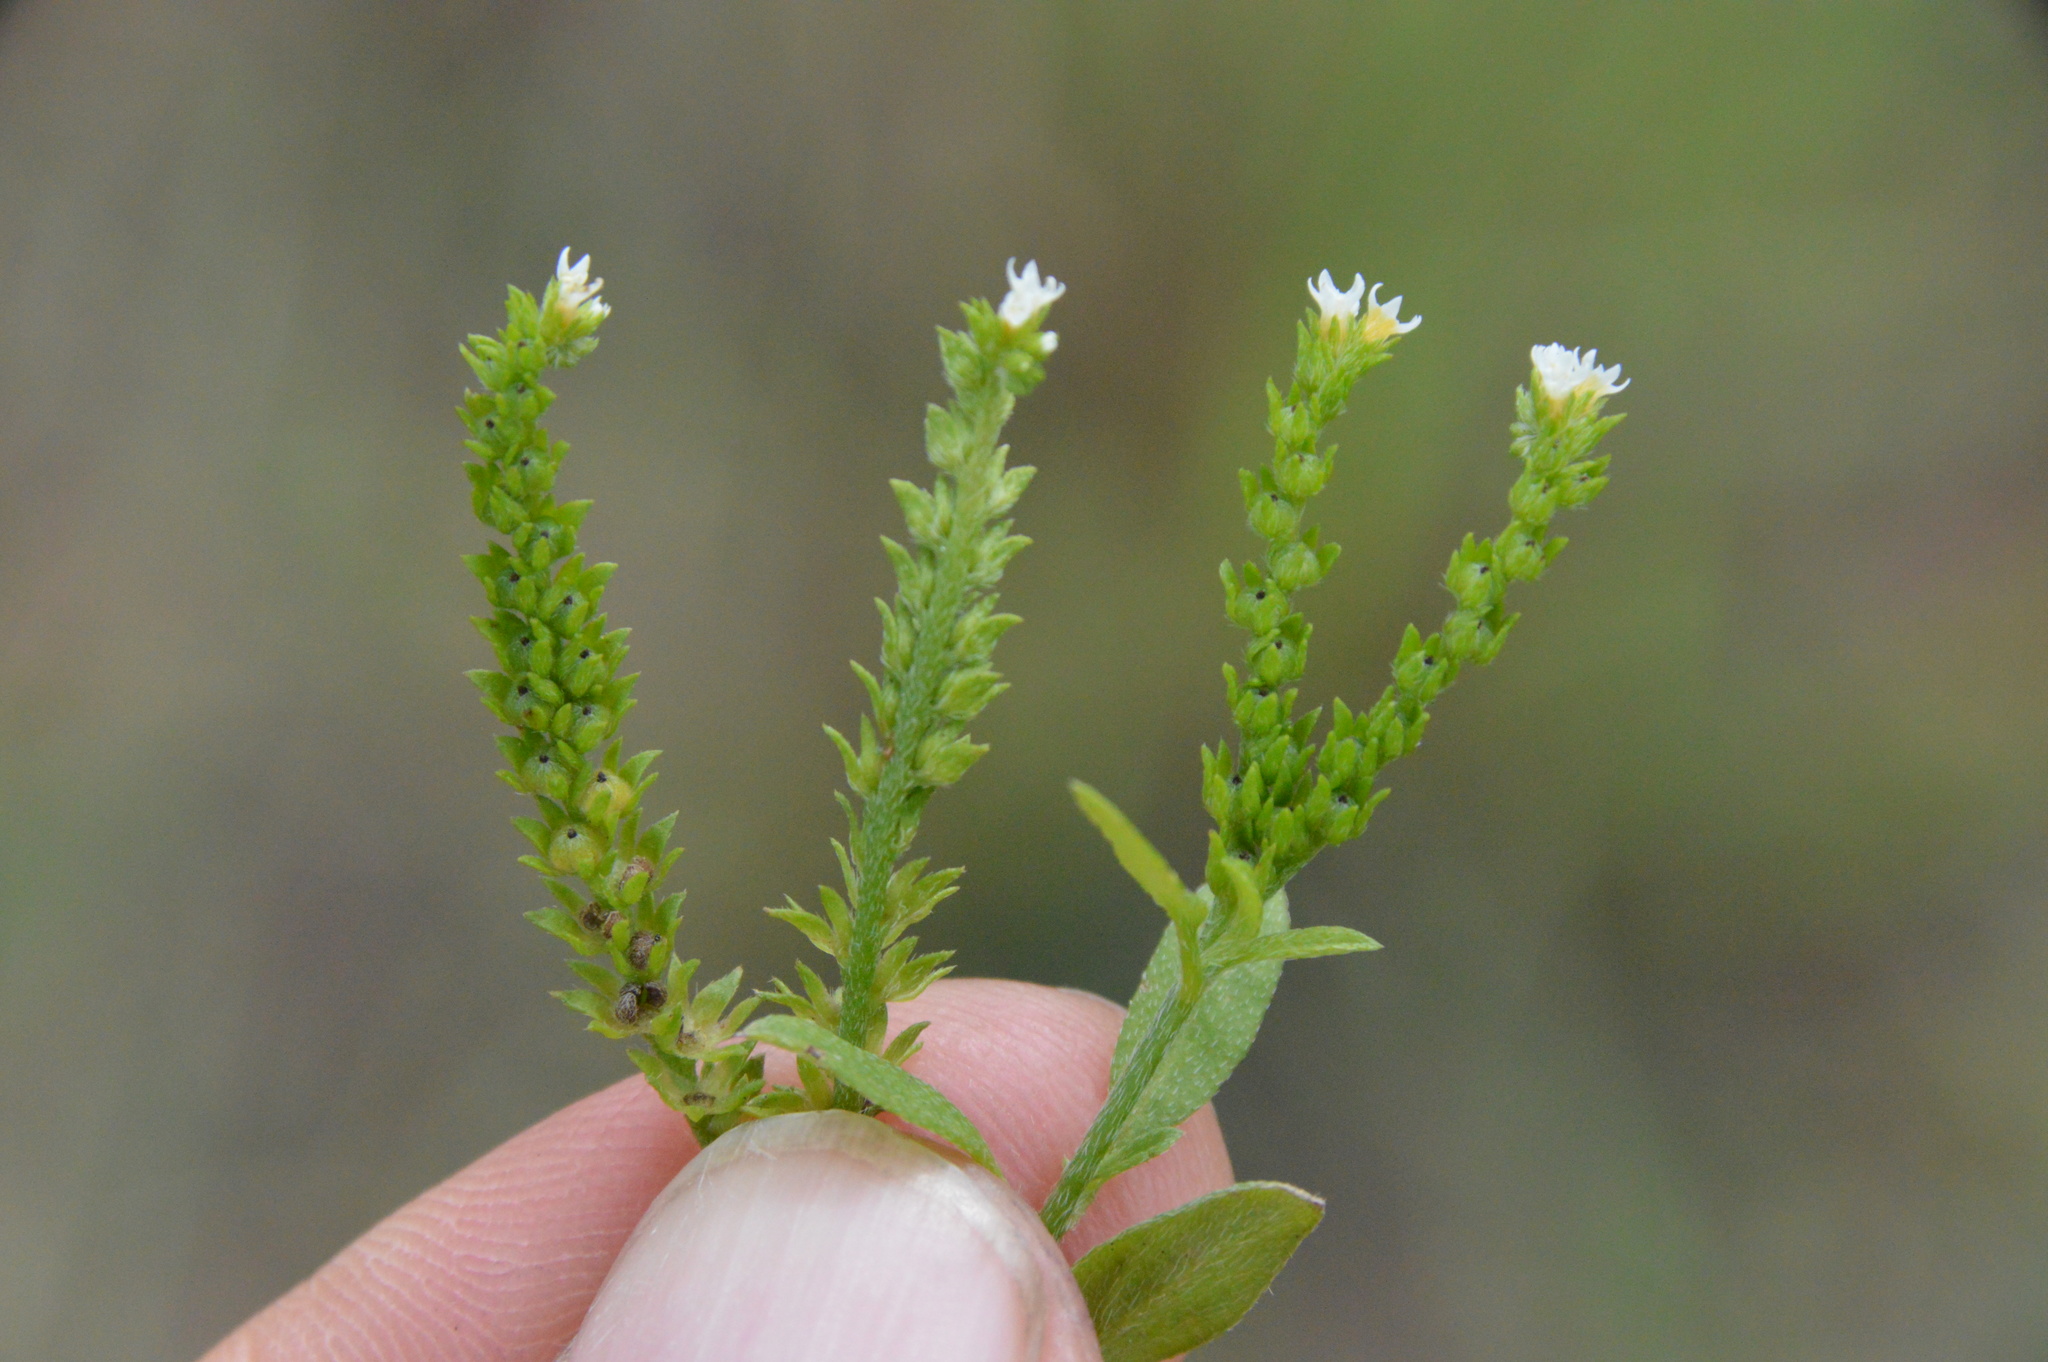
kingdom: Plantae
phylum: Tracheophyta
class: Magnoliopsida
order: Boraginales
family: Heliotropiaceae
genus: Euploca
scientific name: Euploca procumbens
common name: Fourspike heliotrope
